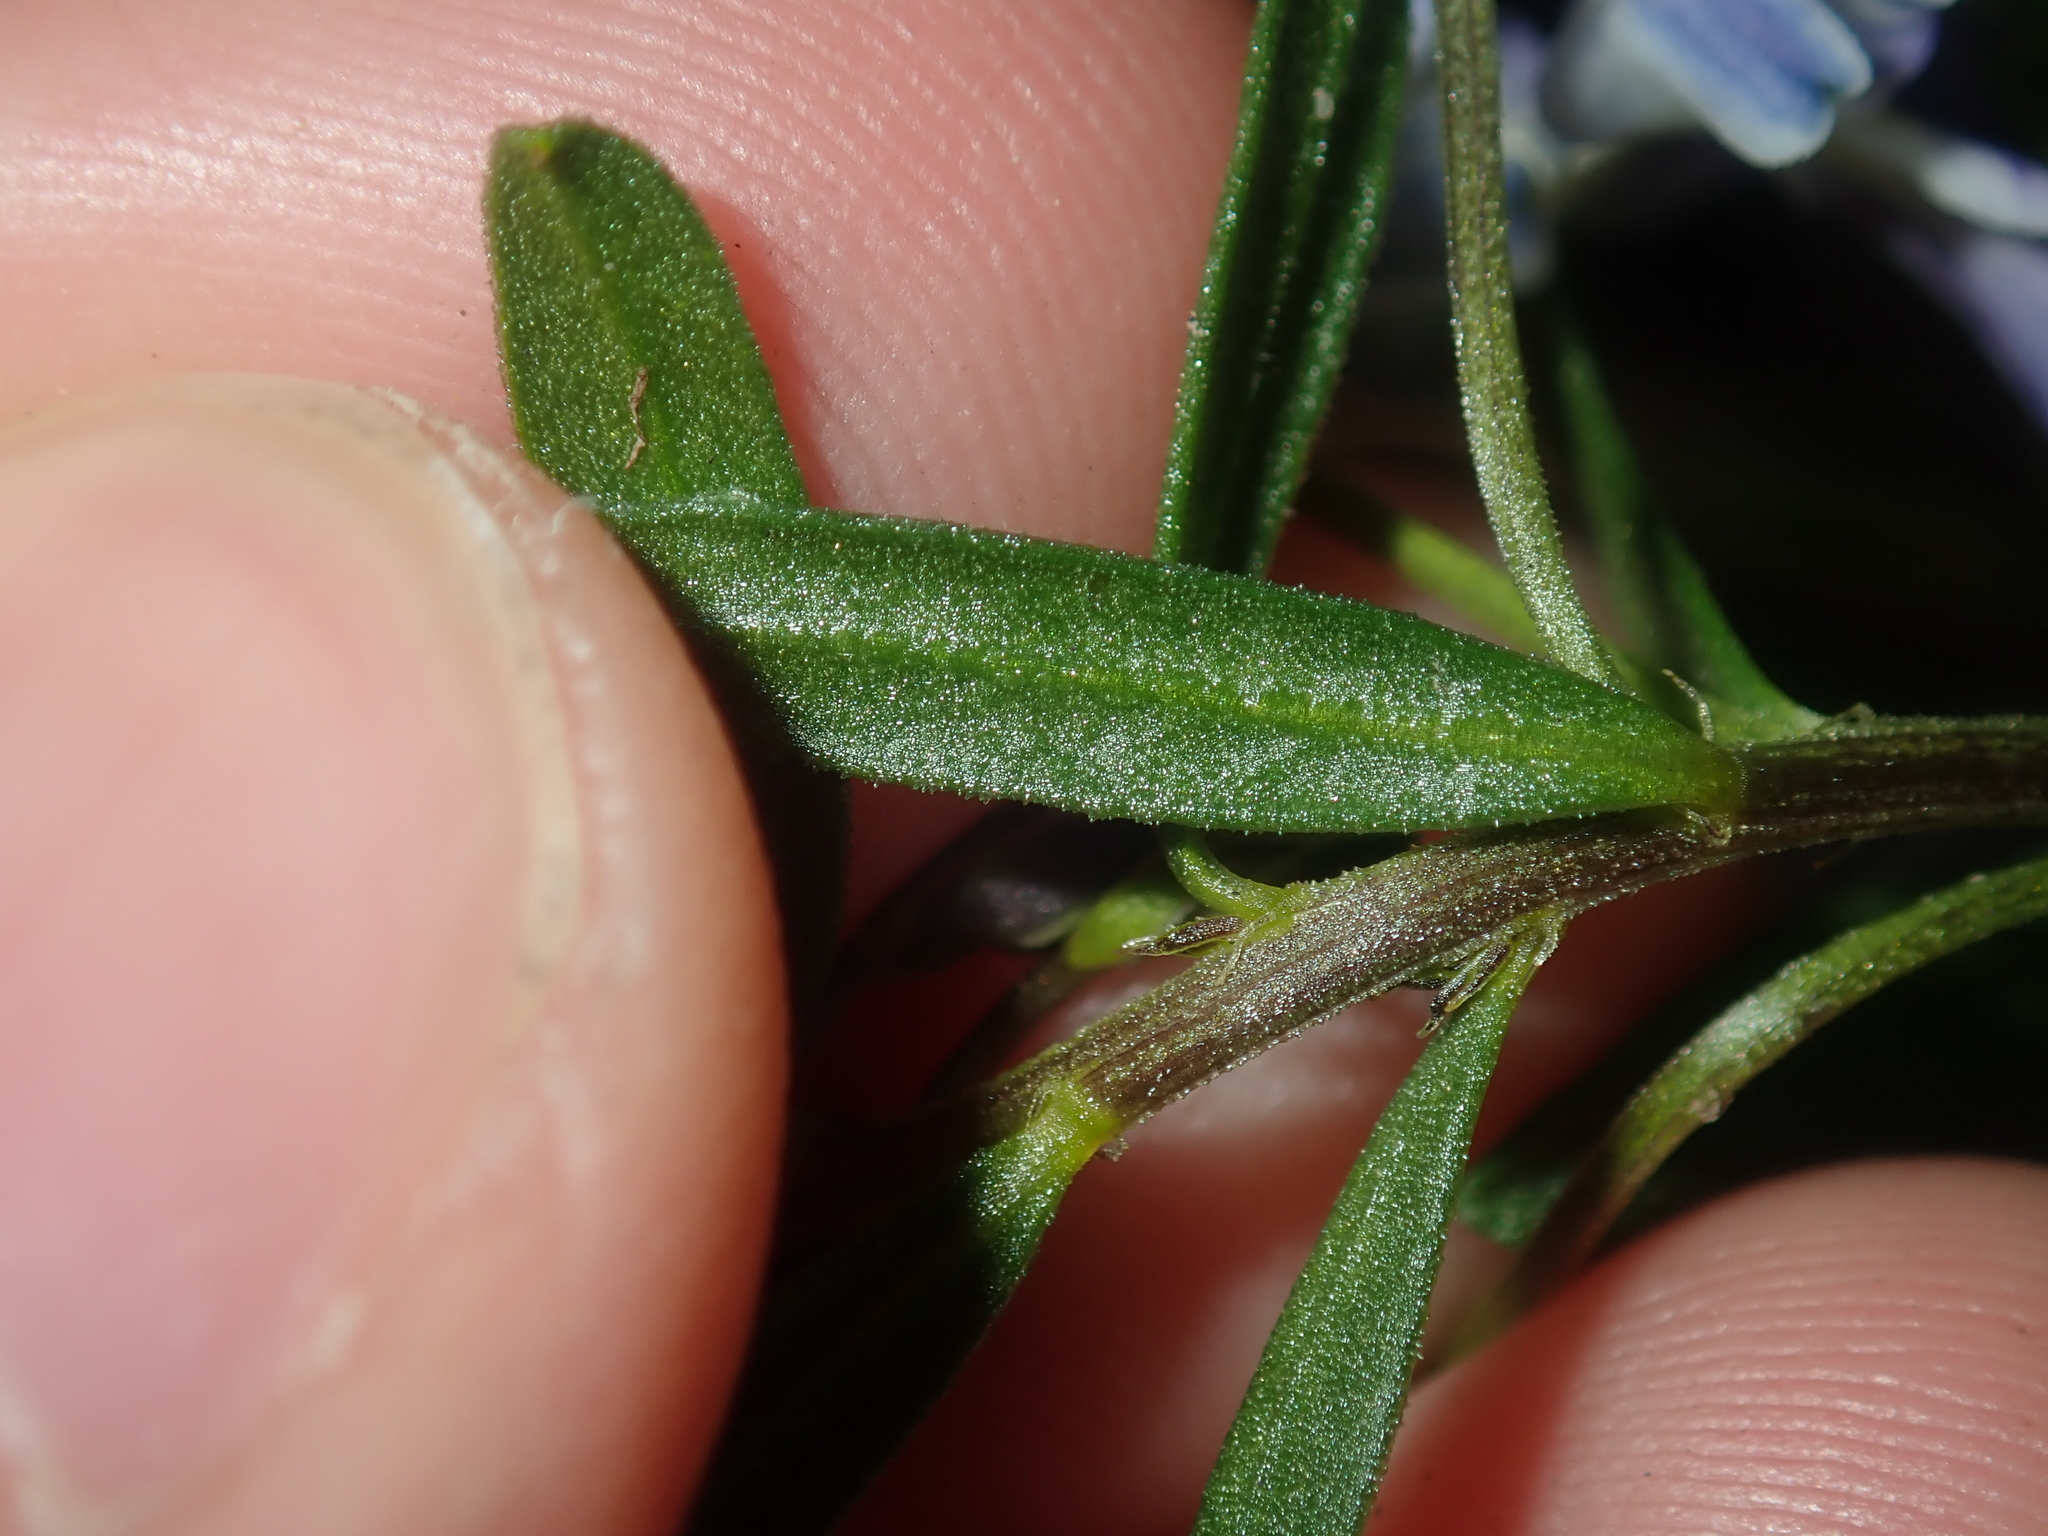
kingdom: Plantae
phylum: Tracheophyta
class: Magnoliopsida
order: Malpighiales
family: Violaceae
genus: Pigea
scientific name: Pigea floribunda
